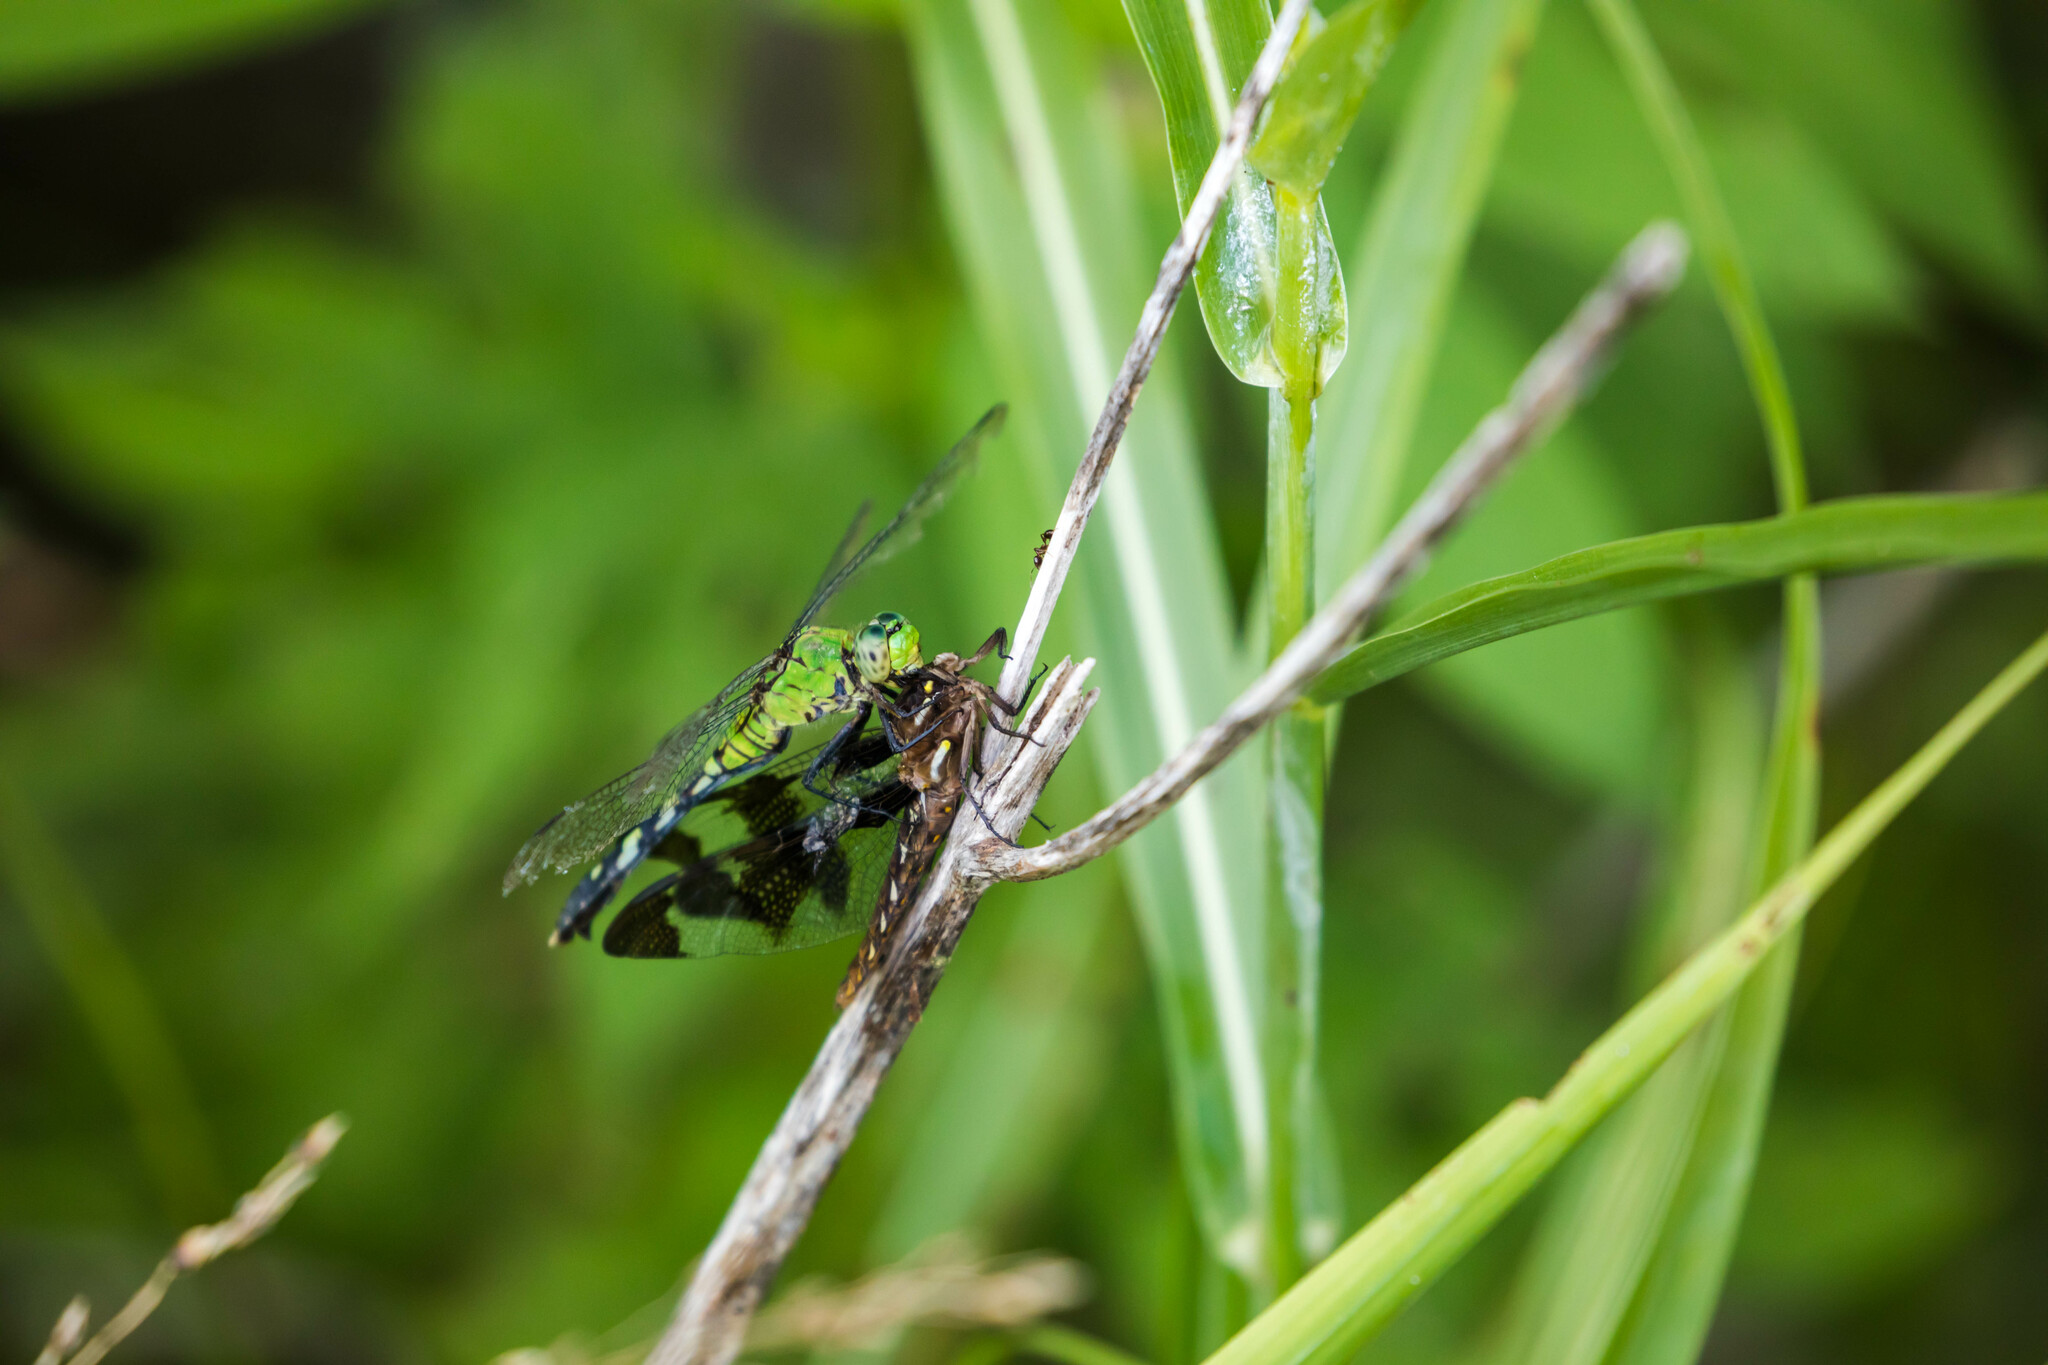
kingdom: Animalia
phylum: Arthropoda
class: Insecta
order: Odonata
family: Libellulidae
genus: Erythemis
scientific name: Erythemis simplicicollis
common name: Eastern pondhawk
